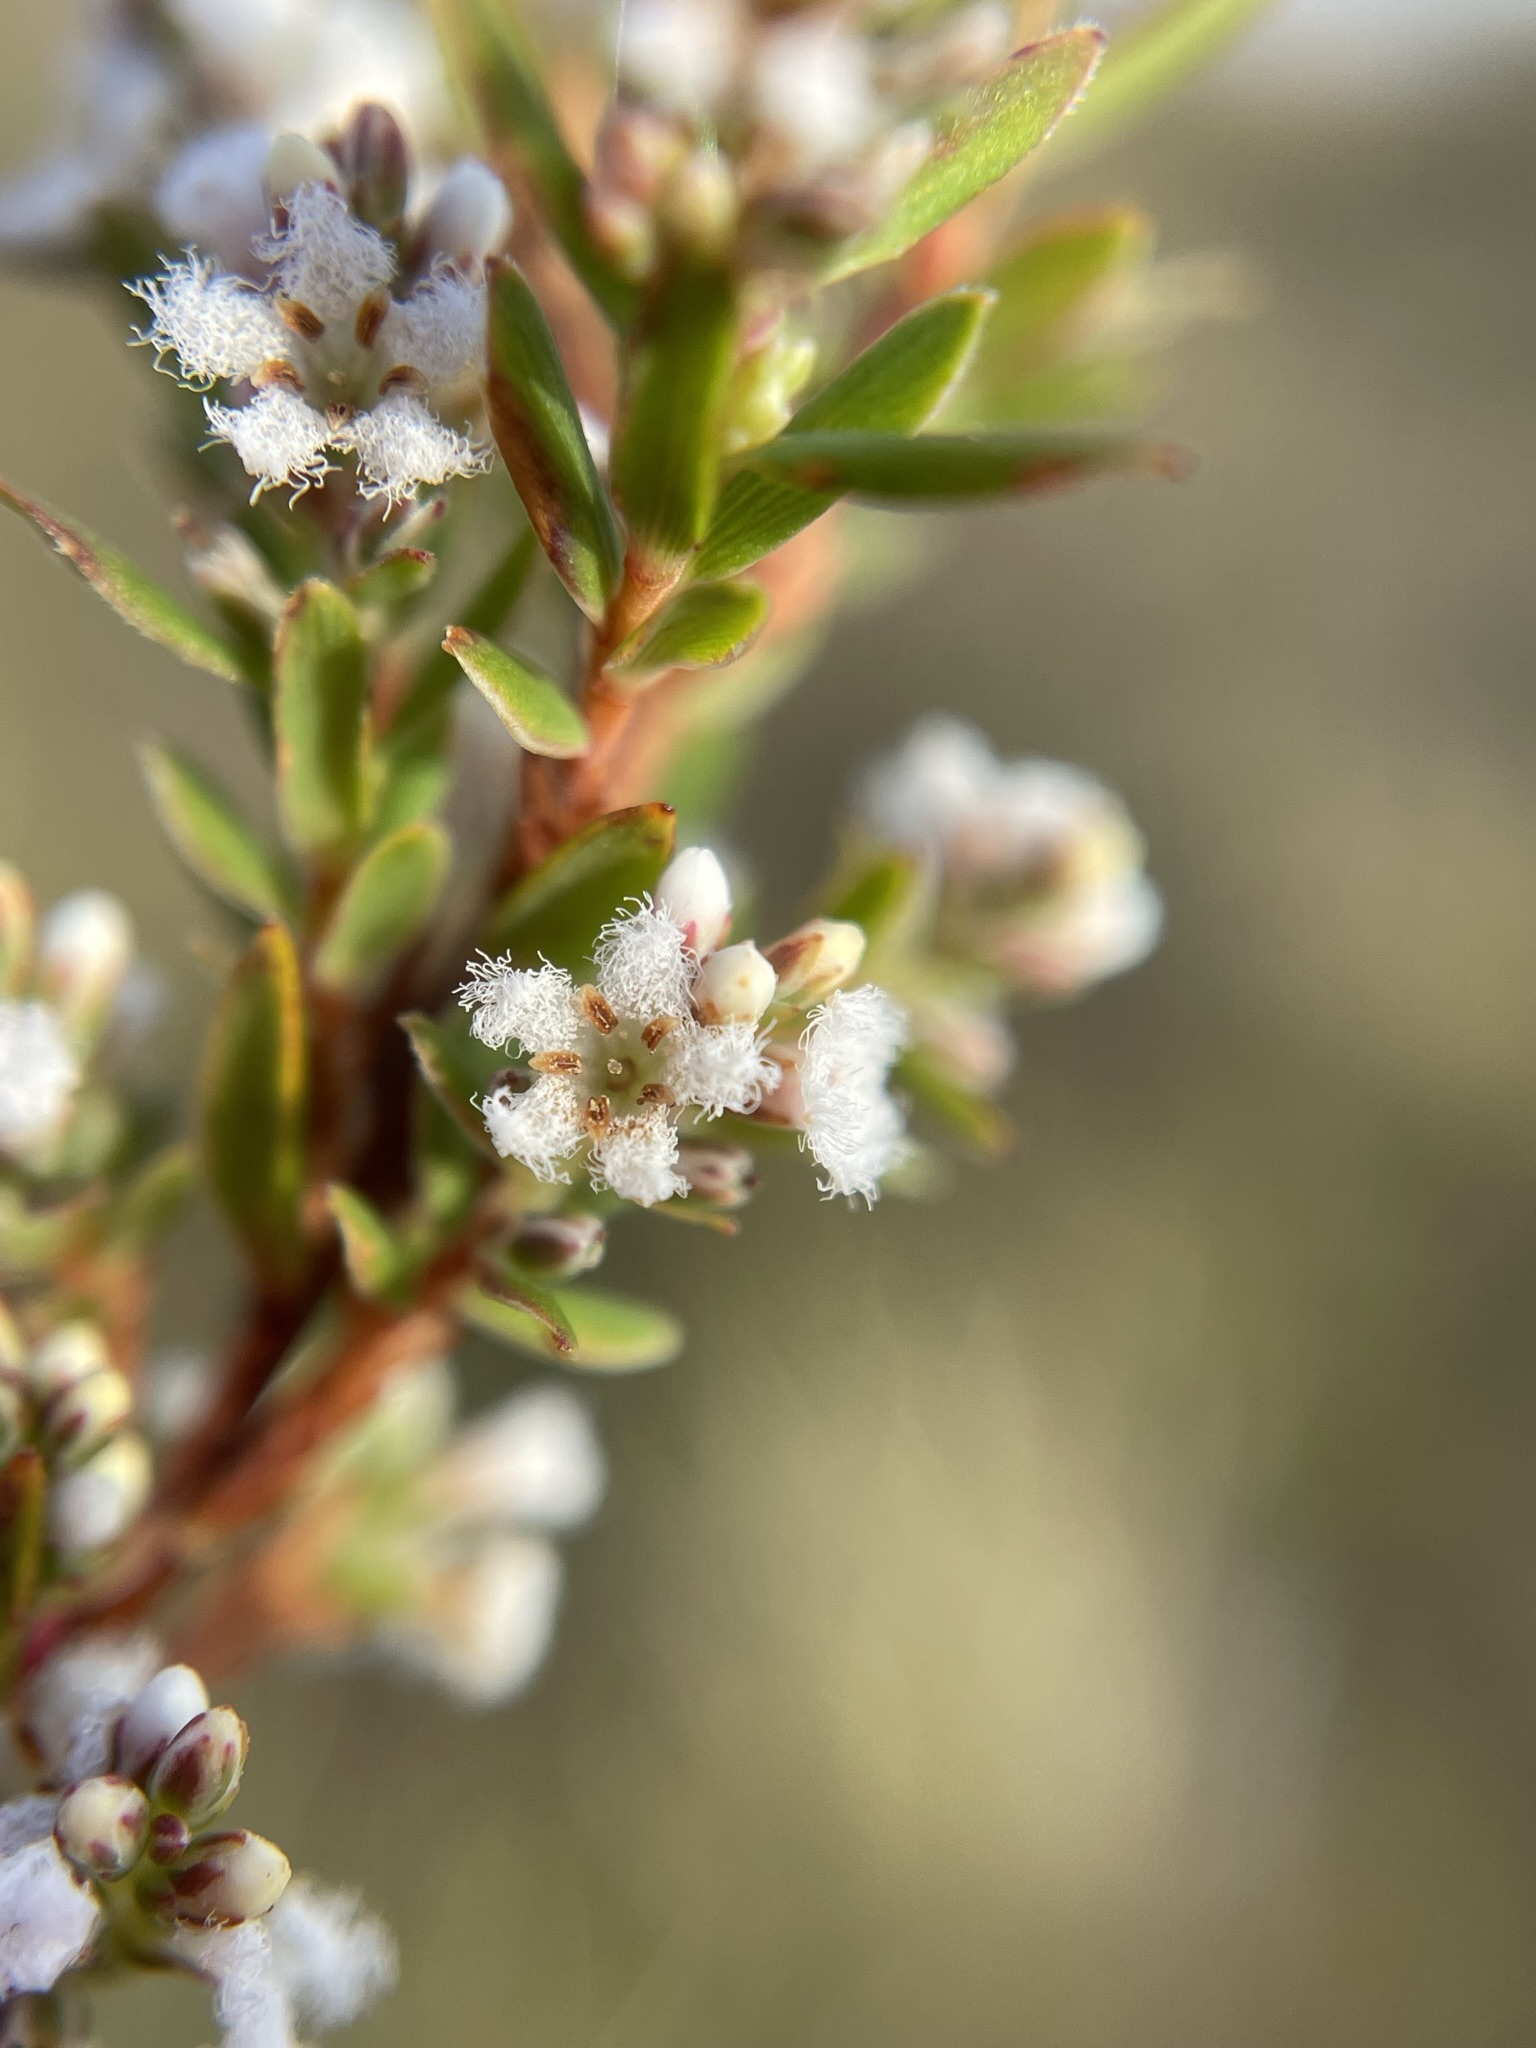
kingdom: Plantae
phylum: Tracheophyta
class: Magnoliopsida
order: Ericales
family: Ericaceae
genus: Leucopogon
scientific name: Leucopogon collinus
